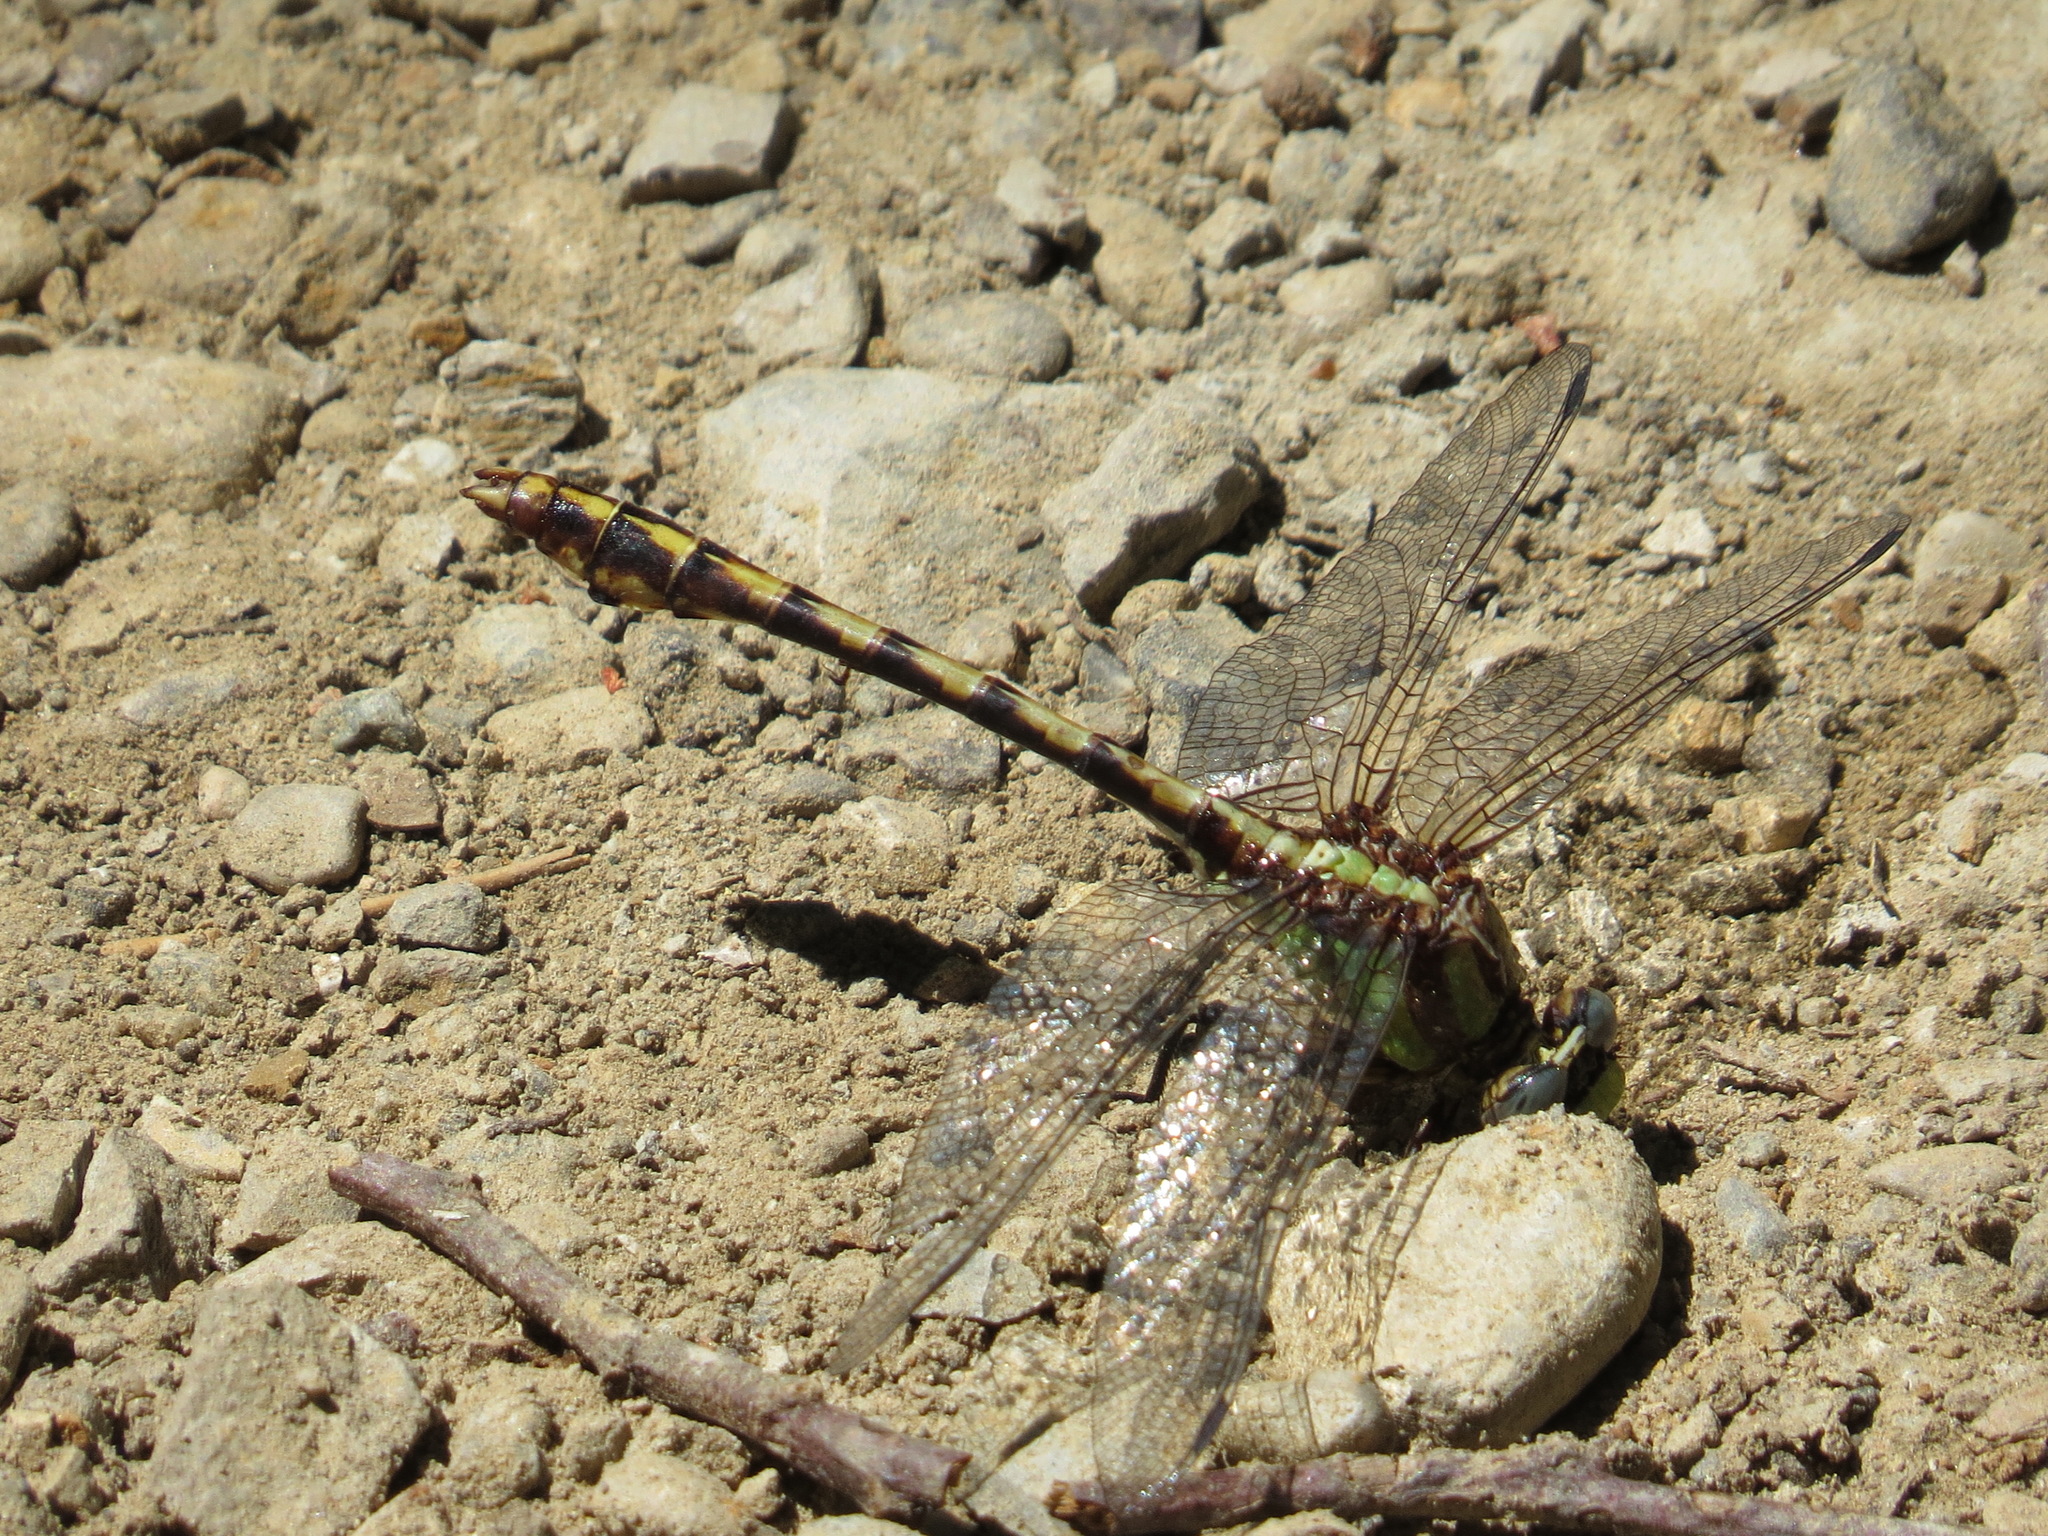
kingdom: Animalia
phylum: Arthropoda
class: Insecta
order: Odonata
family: Gomphidae
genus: Ophiogomphus
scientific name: Ophiogomphus bison
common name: Bison snaketail
